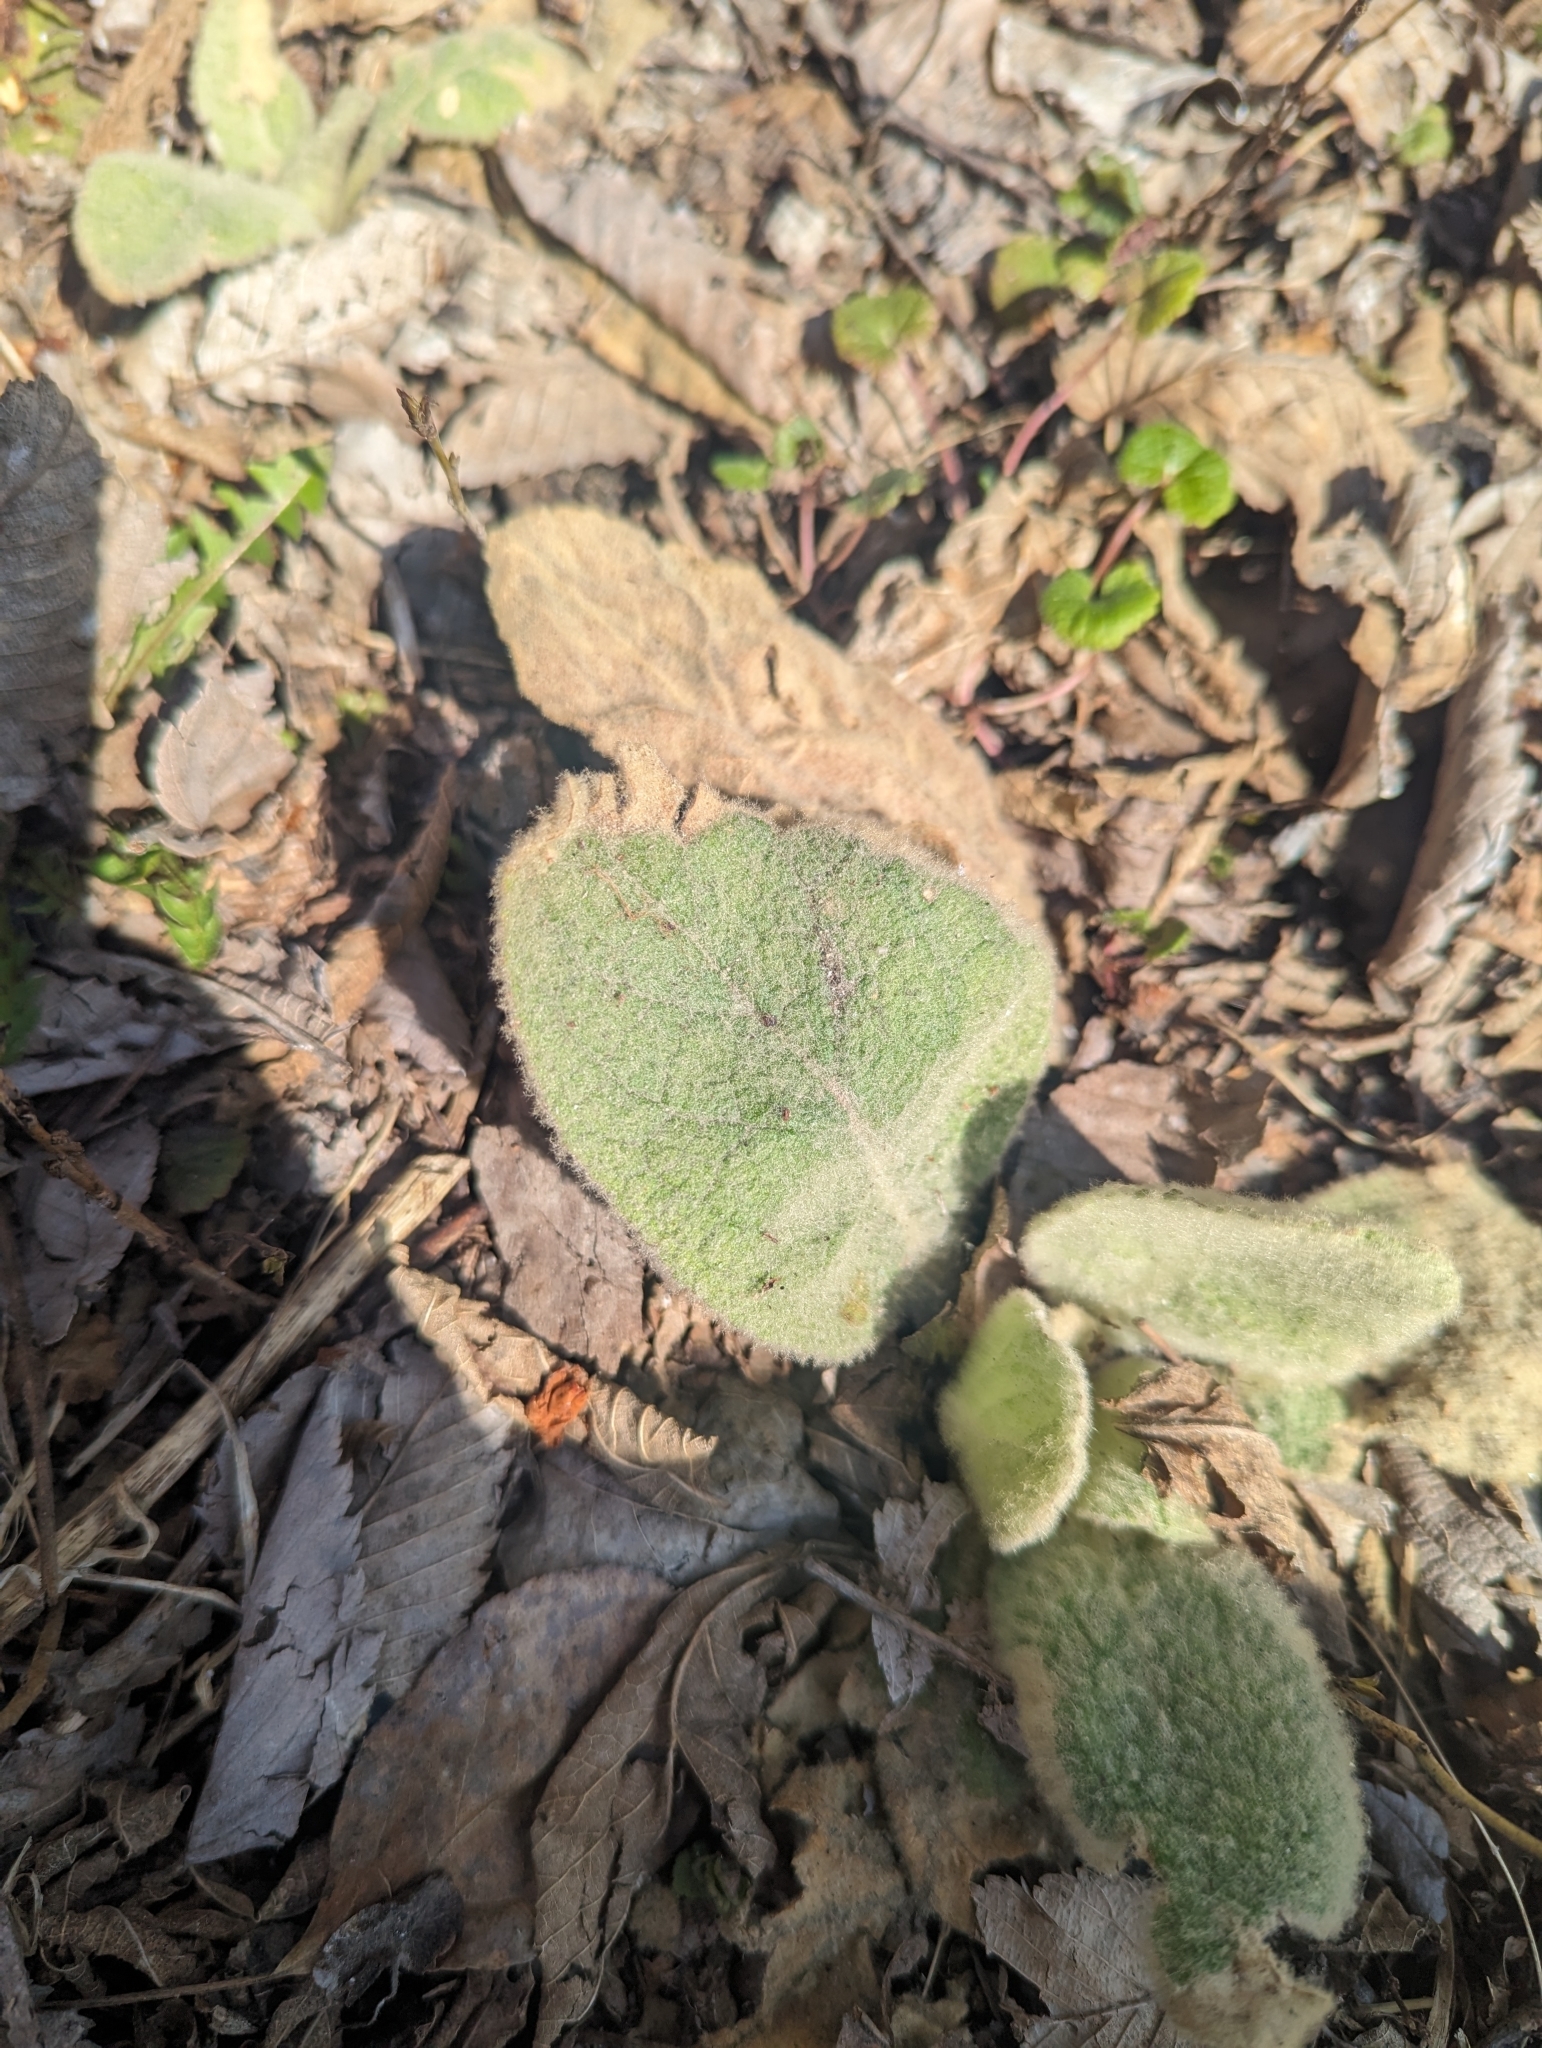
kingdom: Plantae
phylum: Tracheophyta
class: Magnoliopsida
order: Lamiales
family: Scrophulariaceae
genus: Verbascum
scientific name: Verbascum thapsus
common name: Common mullein
